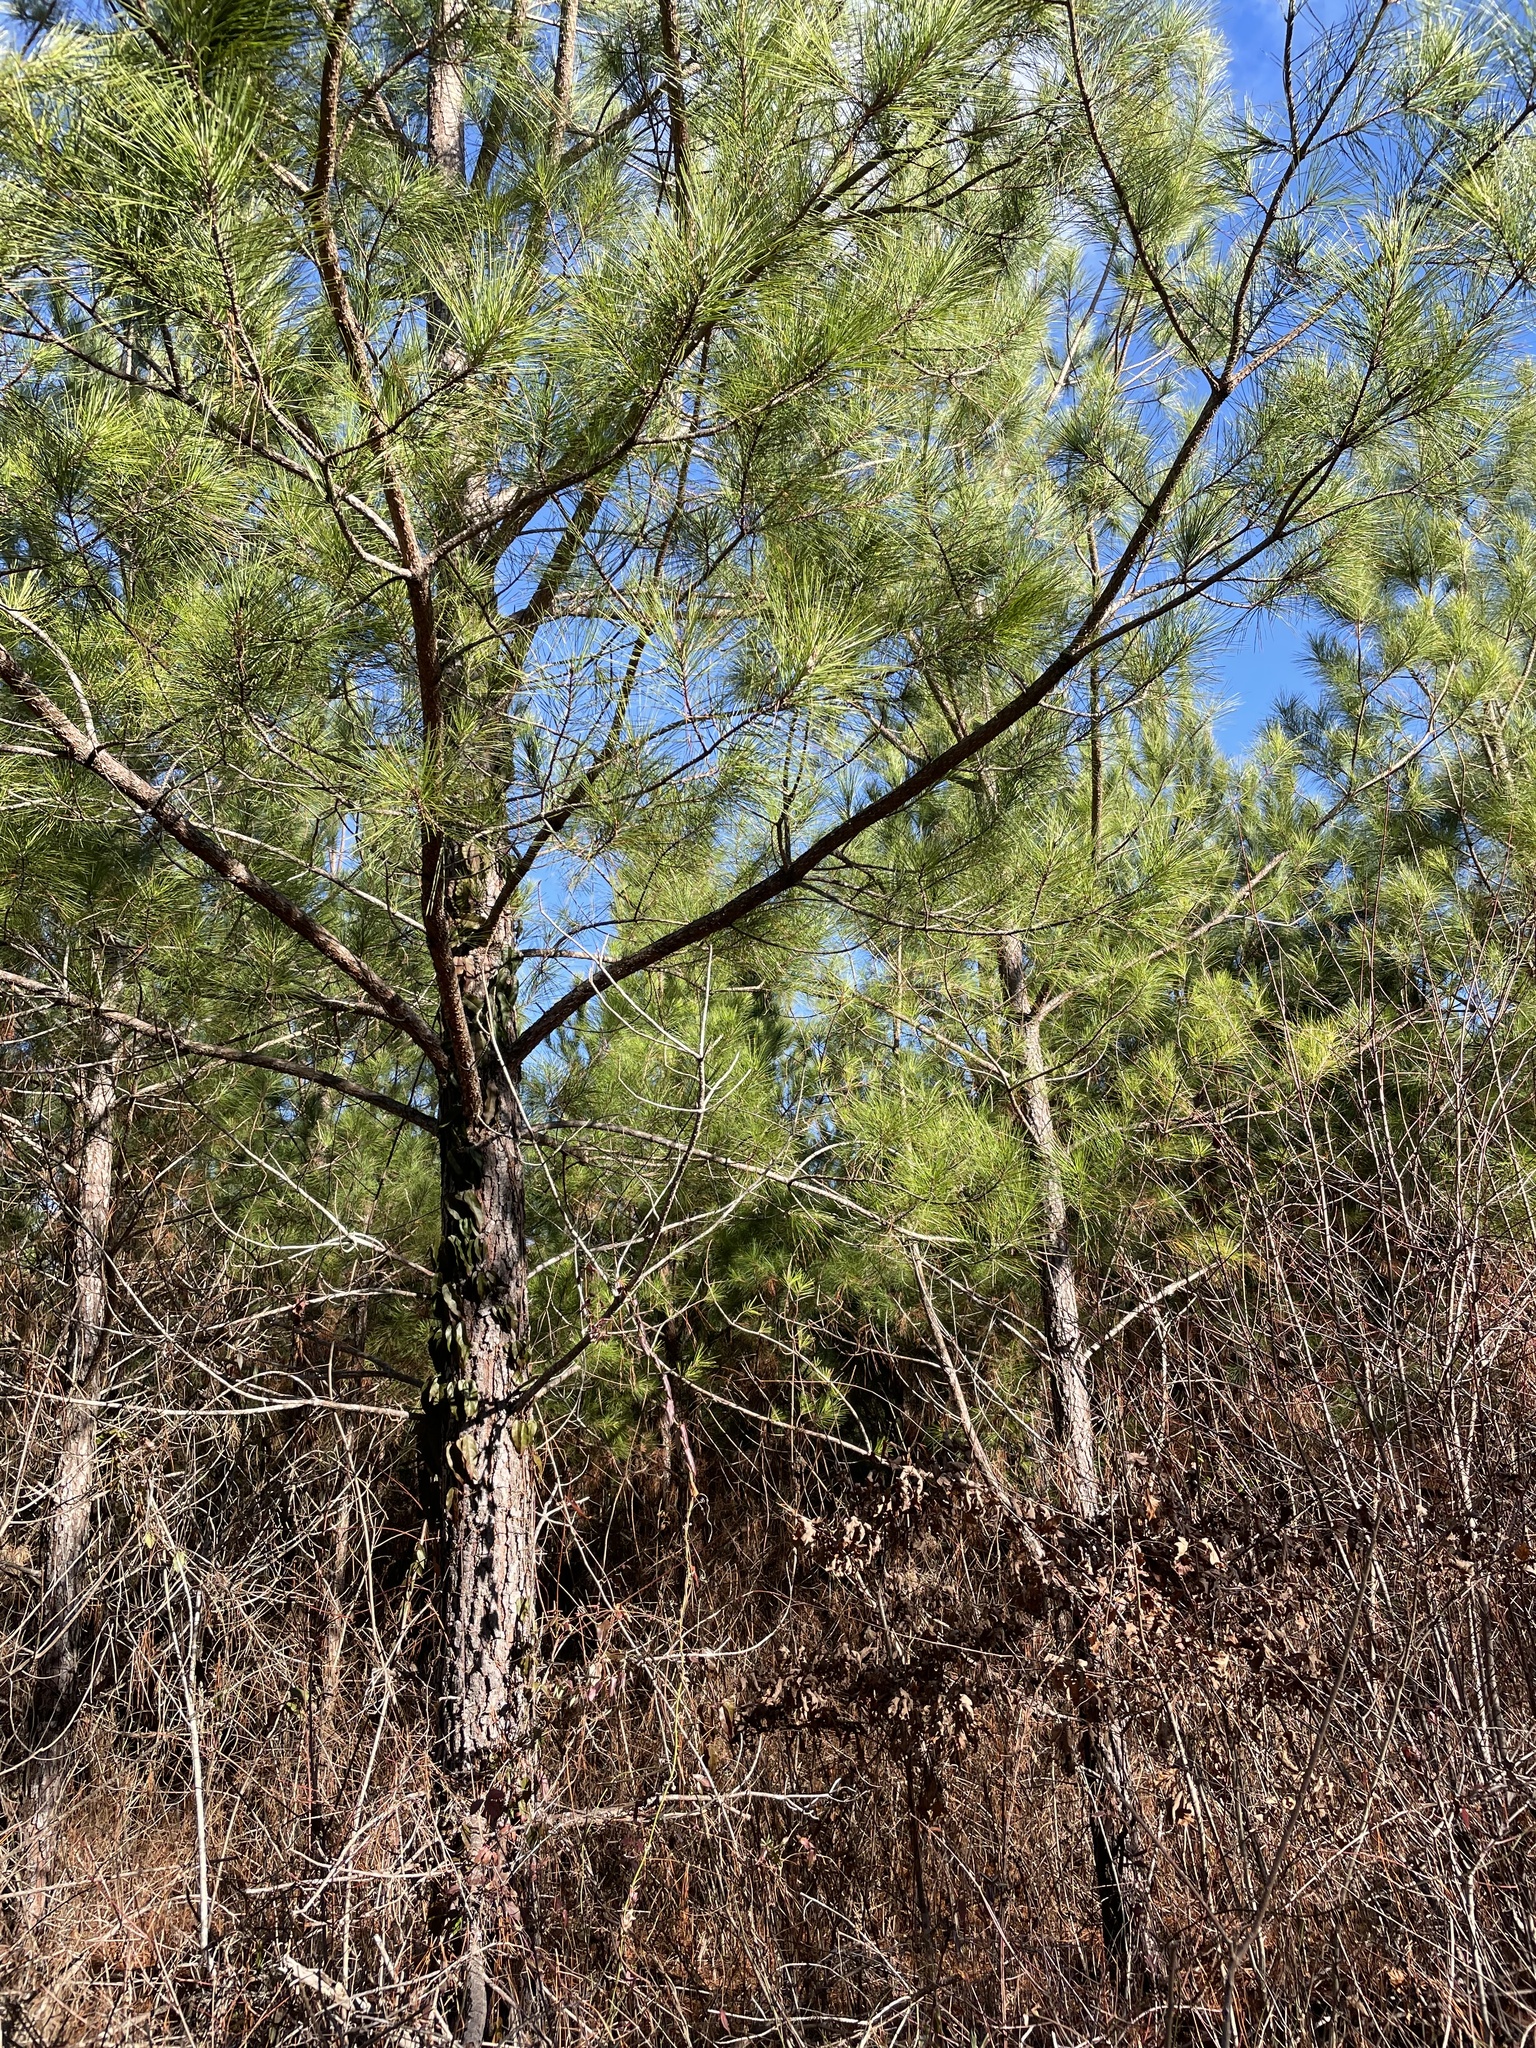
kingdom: Plantae
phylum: Tracheophyta
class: Pinopsida
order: Pinales
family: Pinaceae
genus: Pinus
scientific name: Pinus taeda
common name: Loblolly pine
